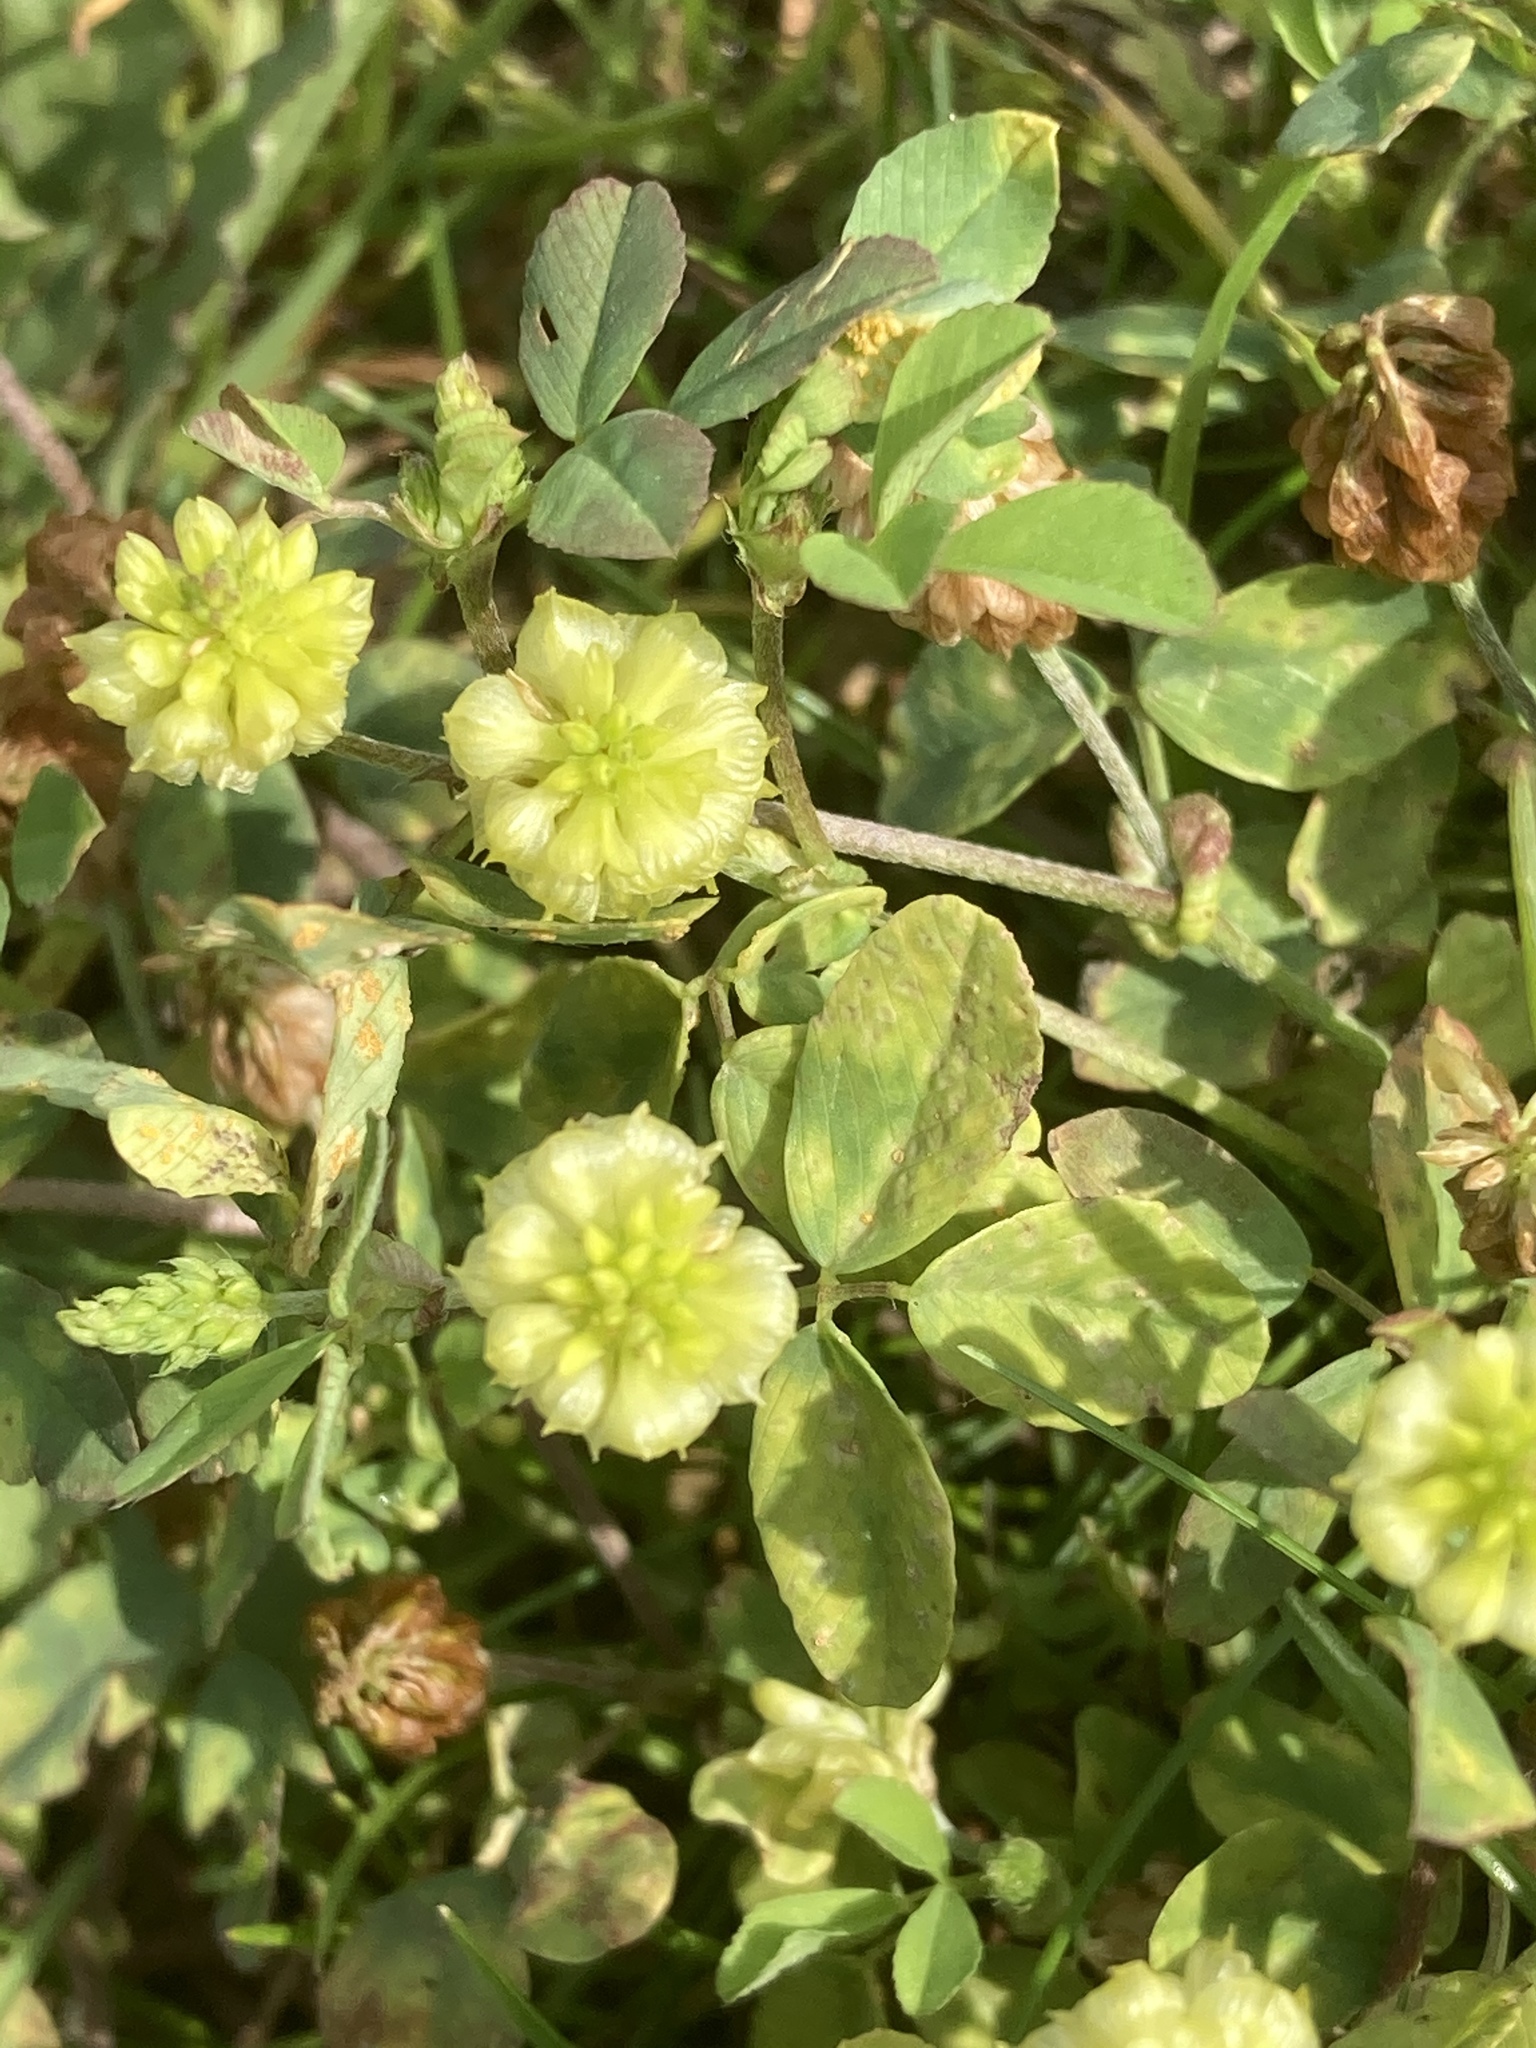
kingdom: Plantae
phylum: Tracheophyta
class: Magnoliopsida
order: Fabales
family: Fabaceae
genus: Trifolium
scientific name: Trifolium campestre
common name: Field clover
